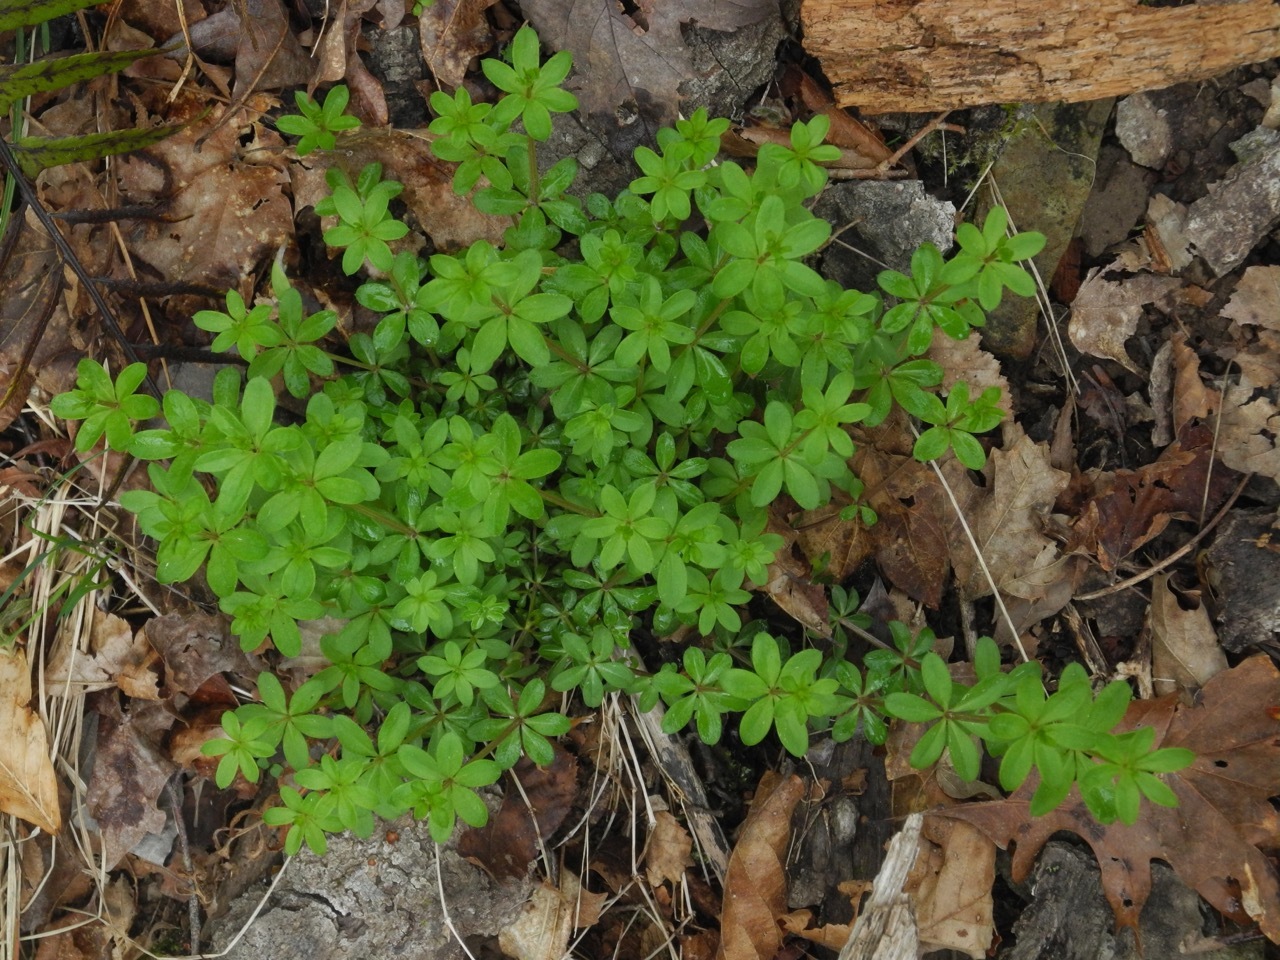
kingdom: Plantae
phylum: Tracheophyta
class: Magnoliopsida
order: Gentianales
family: Rubiaceae
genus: Galium
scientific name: Galium triflorum
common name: Fragrant bedstraw
